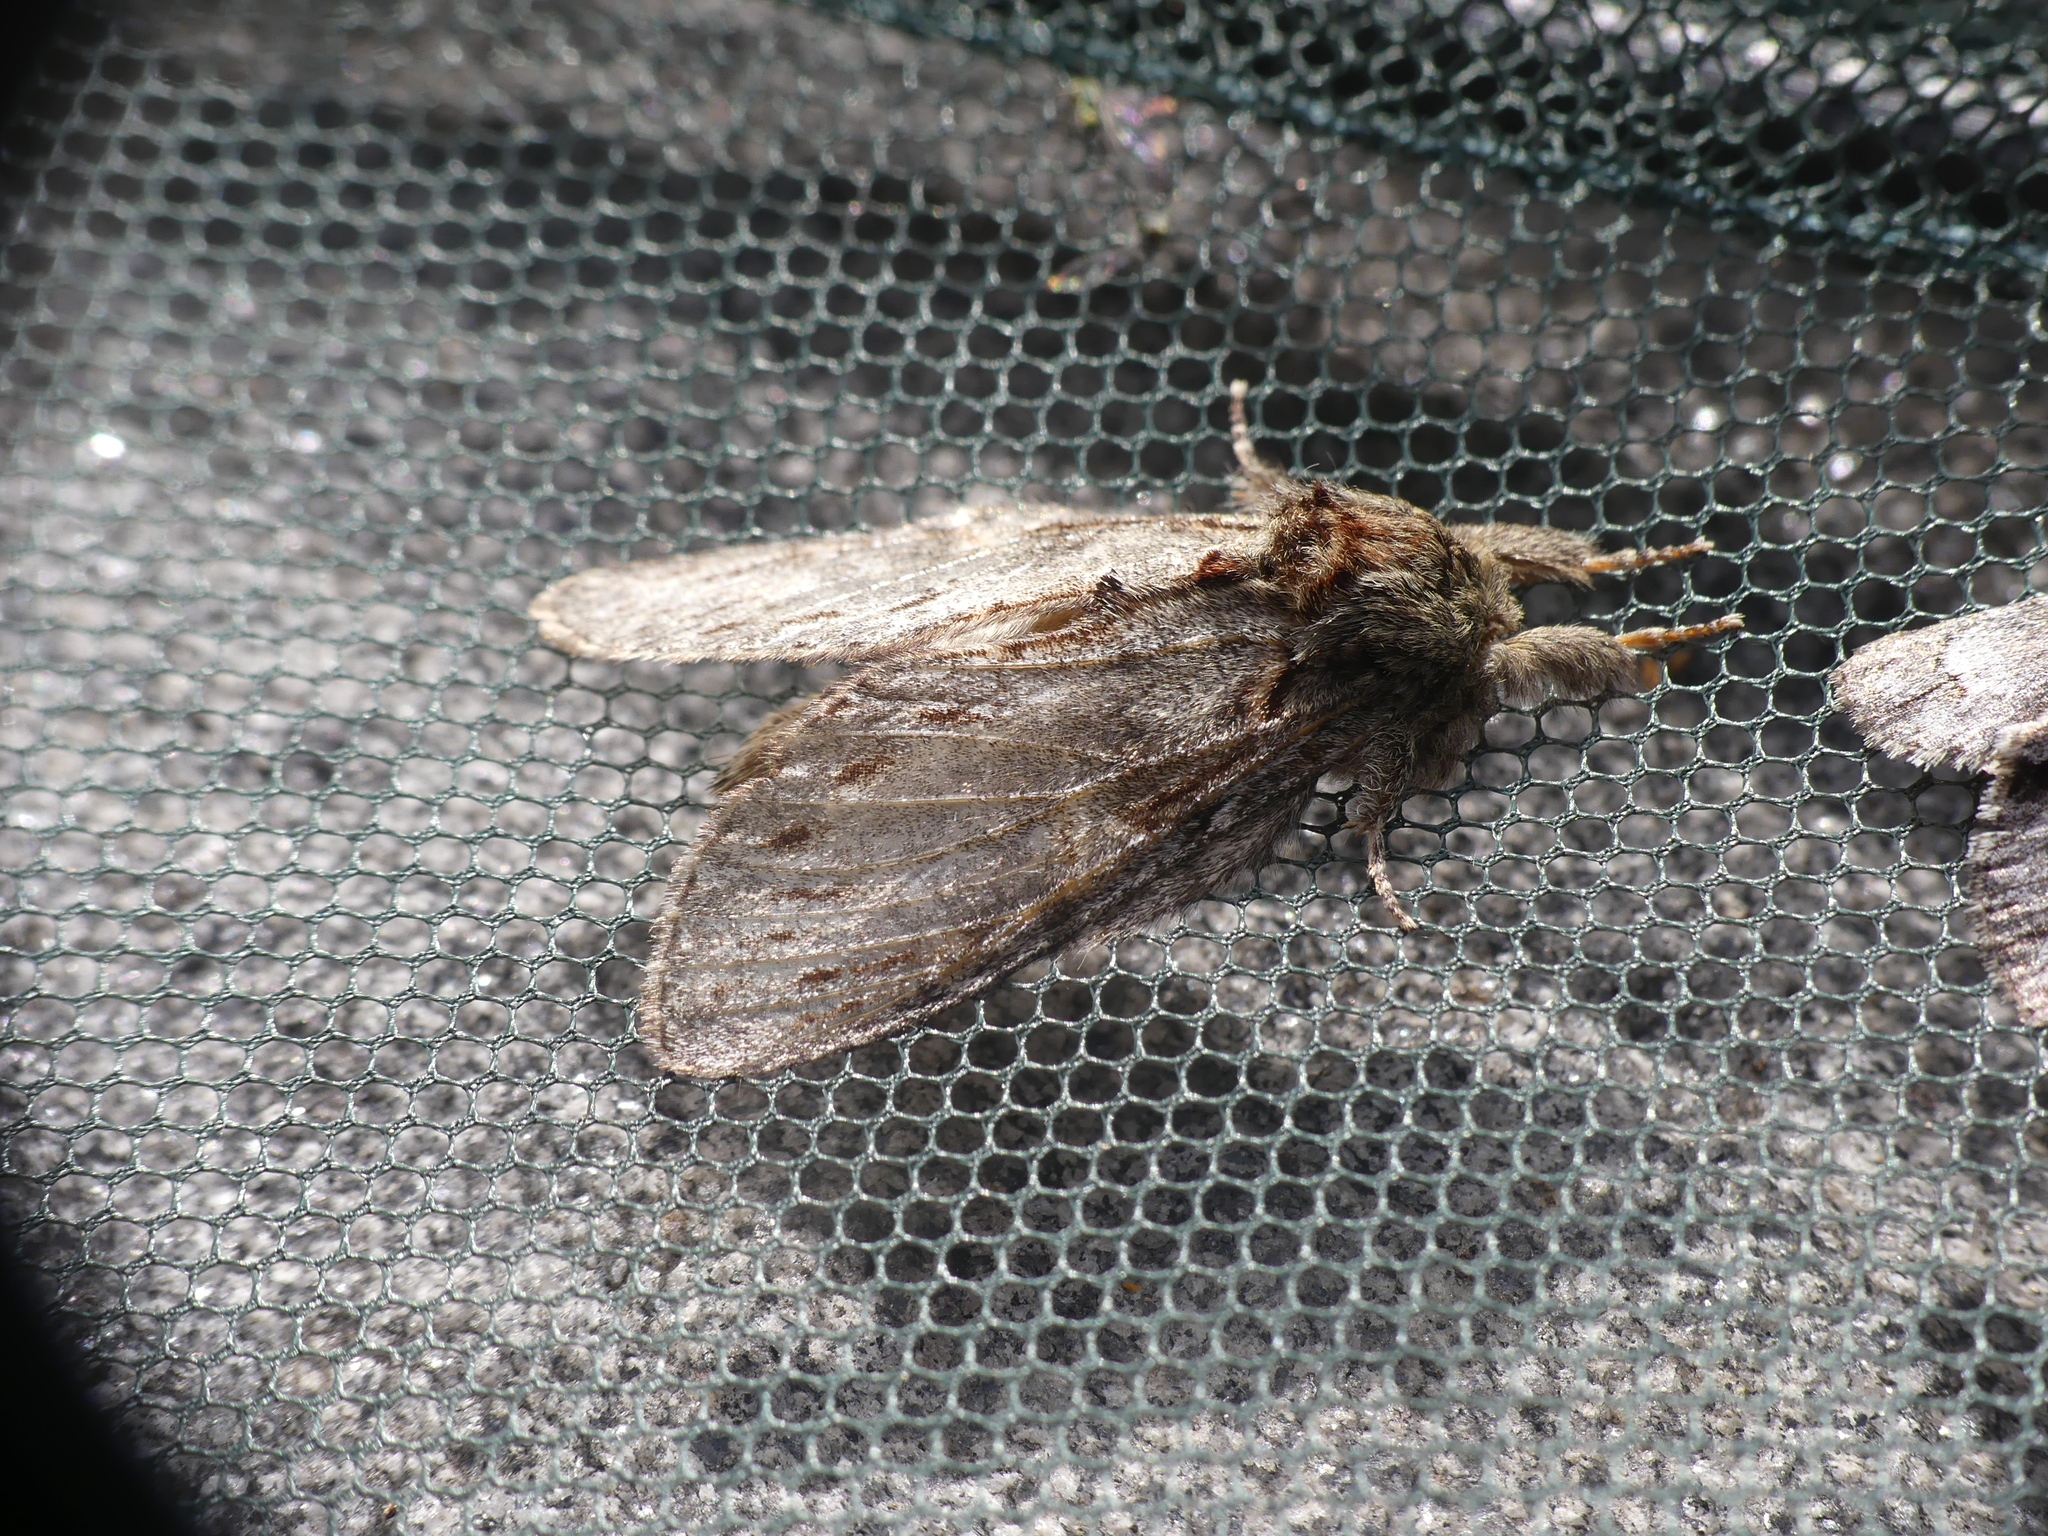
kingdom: Animalia
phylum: Arthropoda
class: Insecta
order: Lepidoptera
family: Notodontidae
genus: Peridea
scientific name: Peridea anceps
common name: Great prominent
